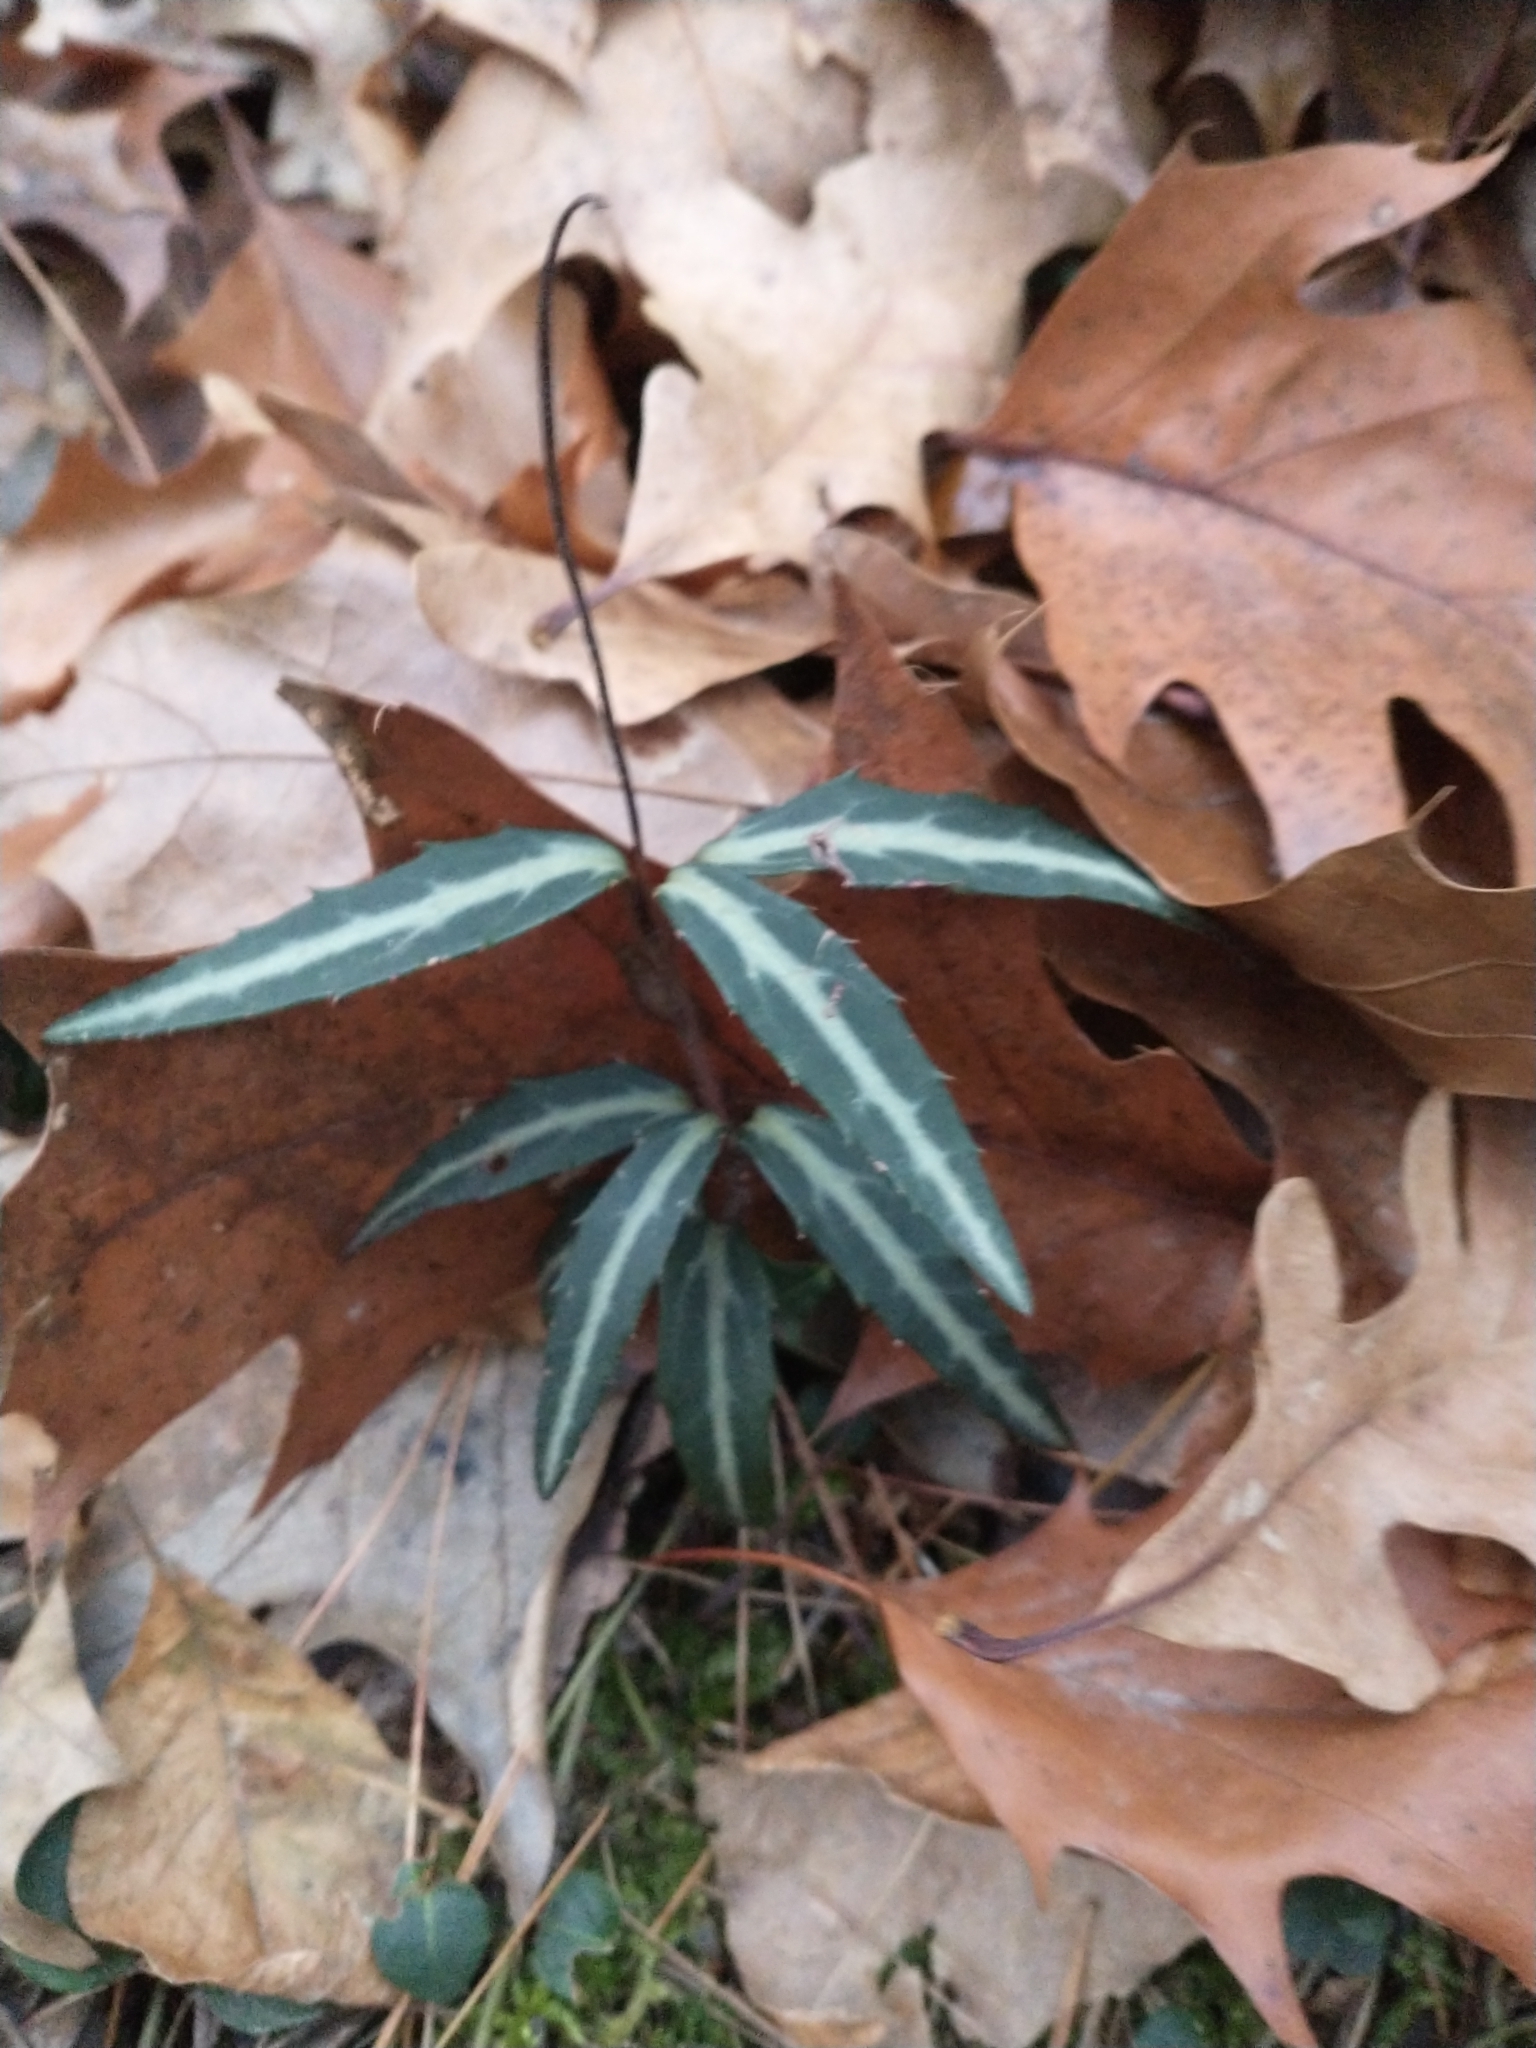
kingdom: Plantae
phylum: Tracheophyta
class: Magnoliopsida
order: Ericales
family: Ericaceae
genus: Chimaphila
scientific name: Chimaphila maculata
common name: Spotted pipsissewa
